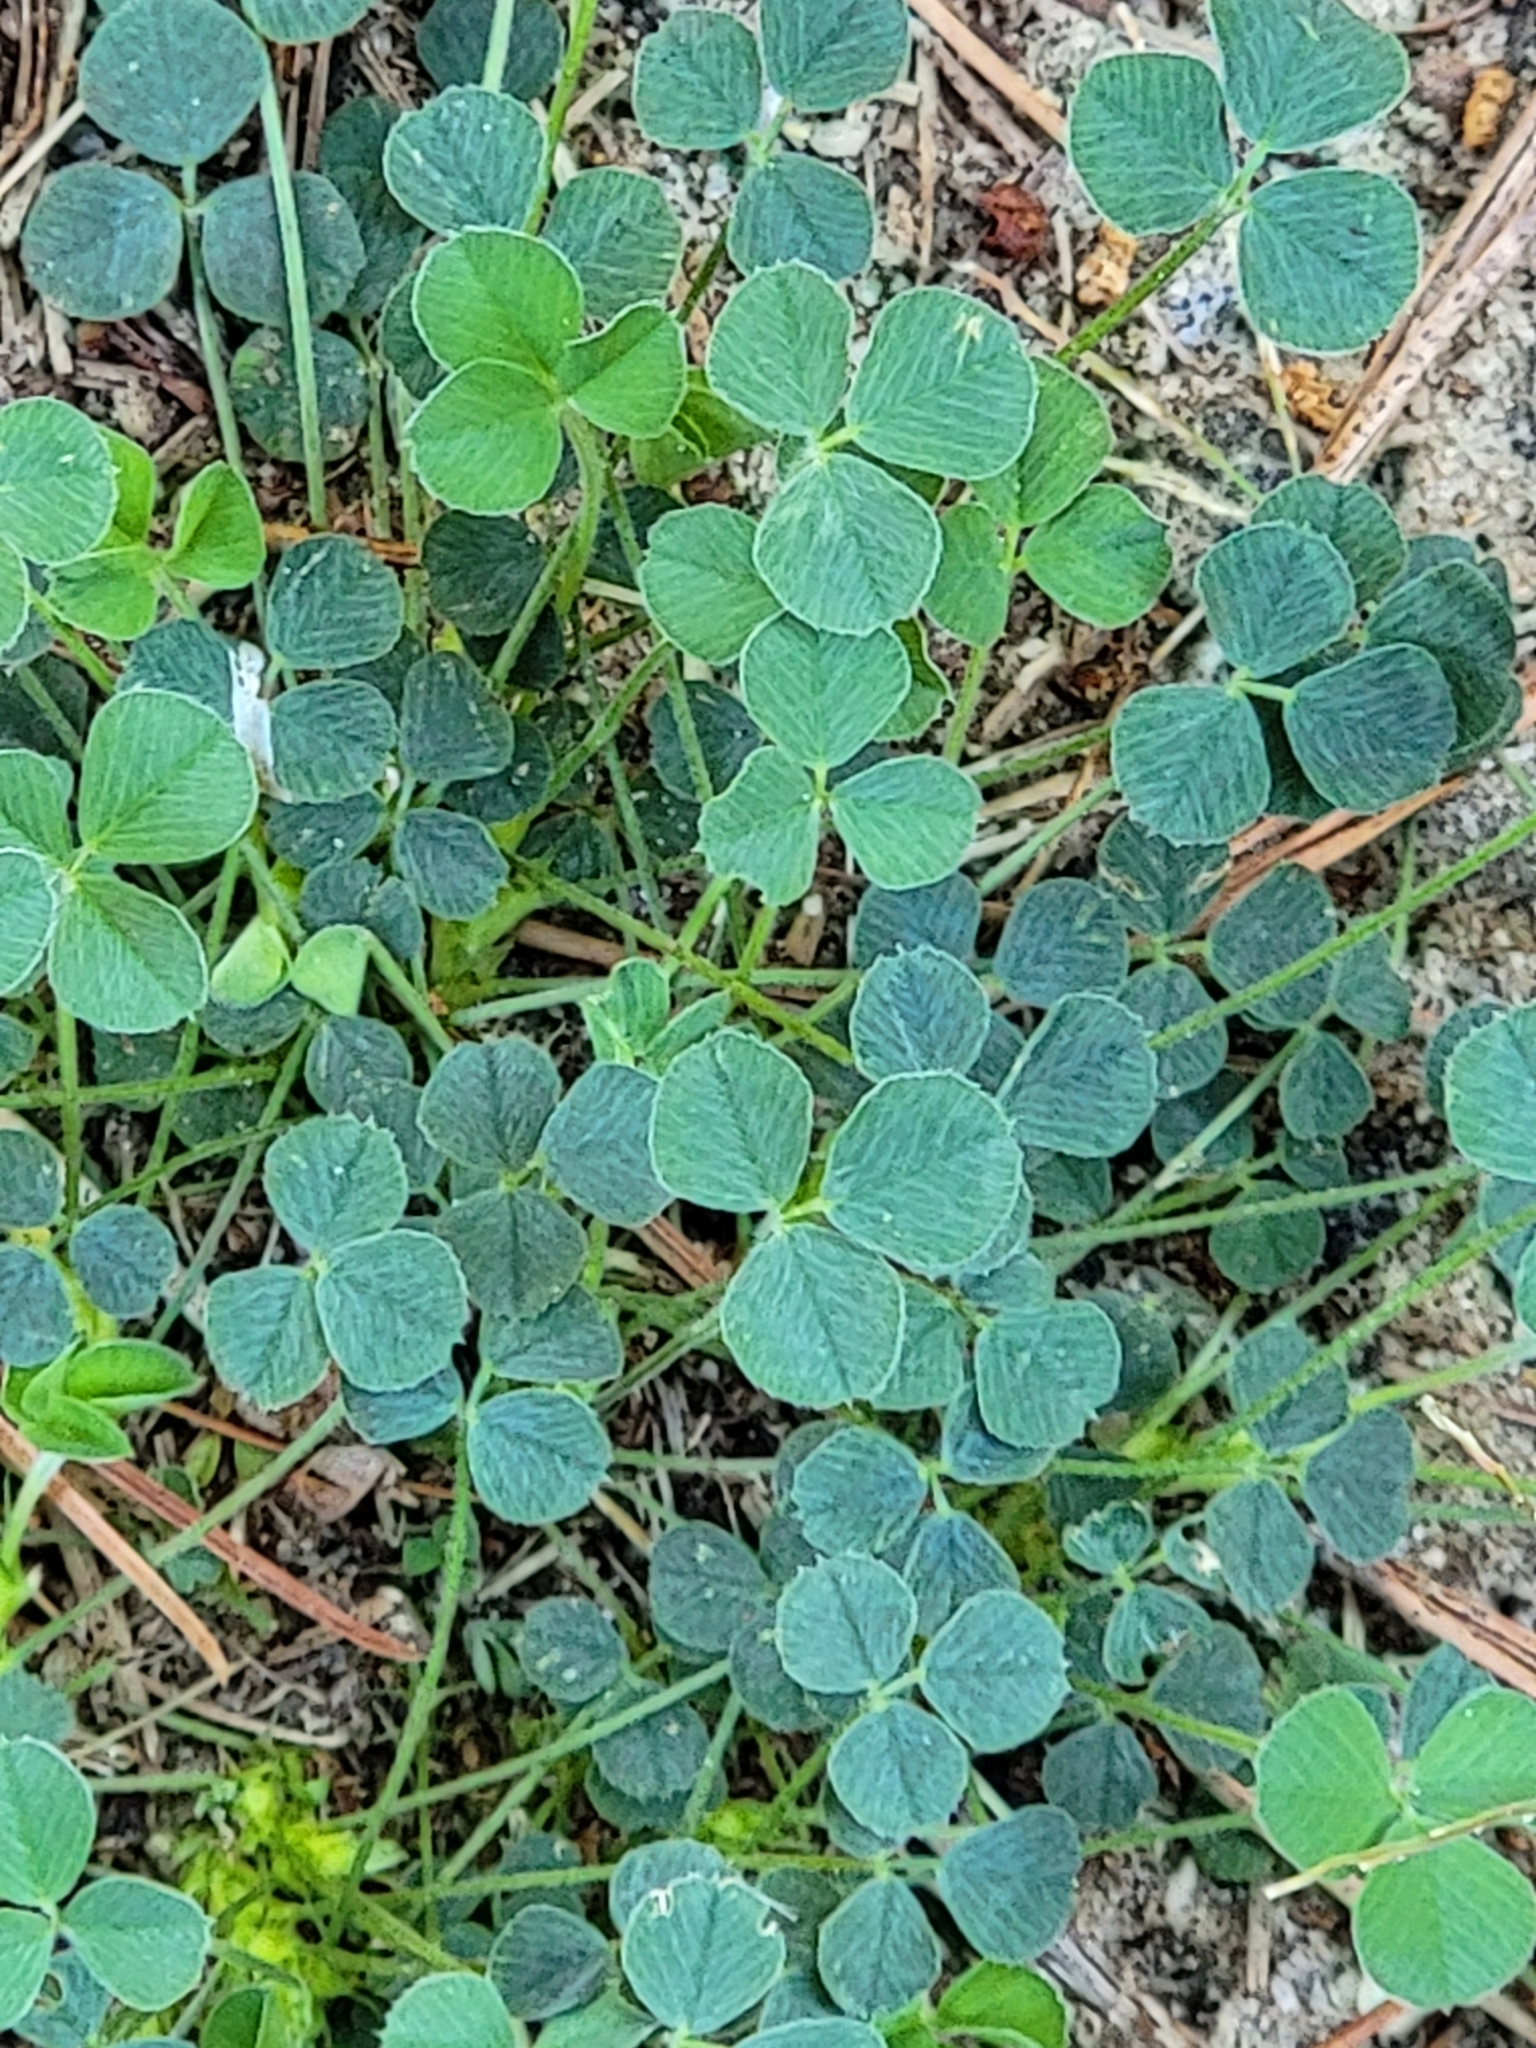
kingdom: Plantae
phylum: Tracheophyta
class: Magnoliopsida
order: Fabales
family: Fabaceae
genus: Medicago
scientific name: Medicago lupulina
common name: Black medick
